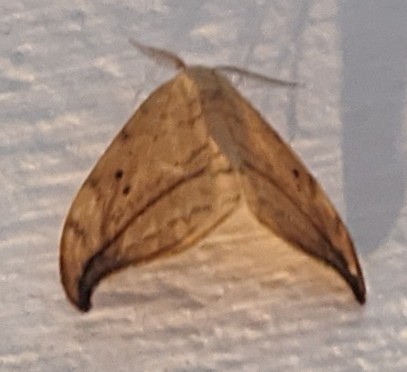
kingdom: Animalia
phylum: Arthropoda
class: Insecta
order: Lepidoptera
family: Drepanidae
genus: Drepana
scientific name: Drepana arcuata
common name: Arched hooktip moth
